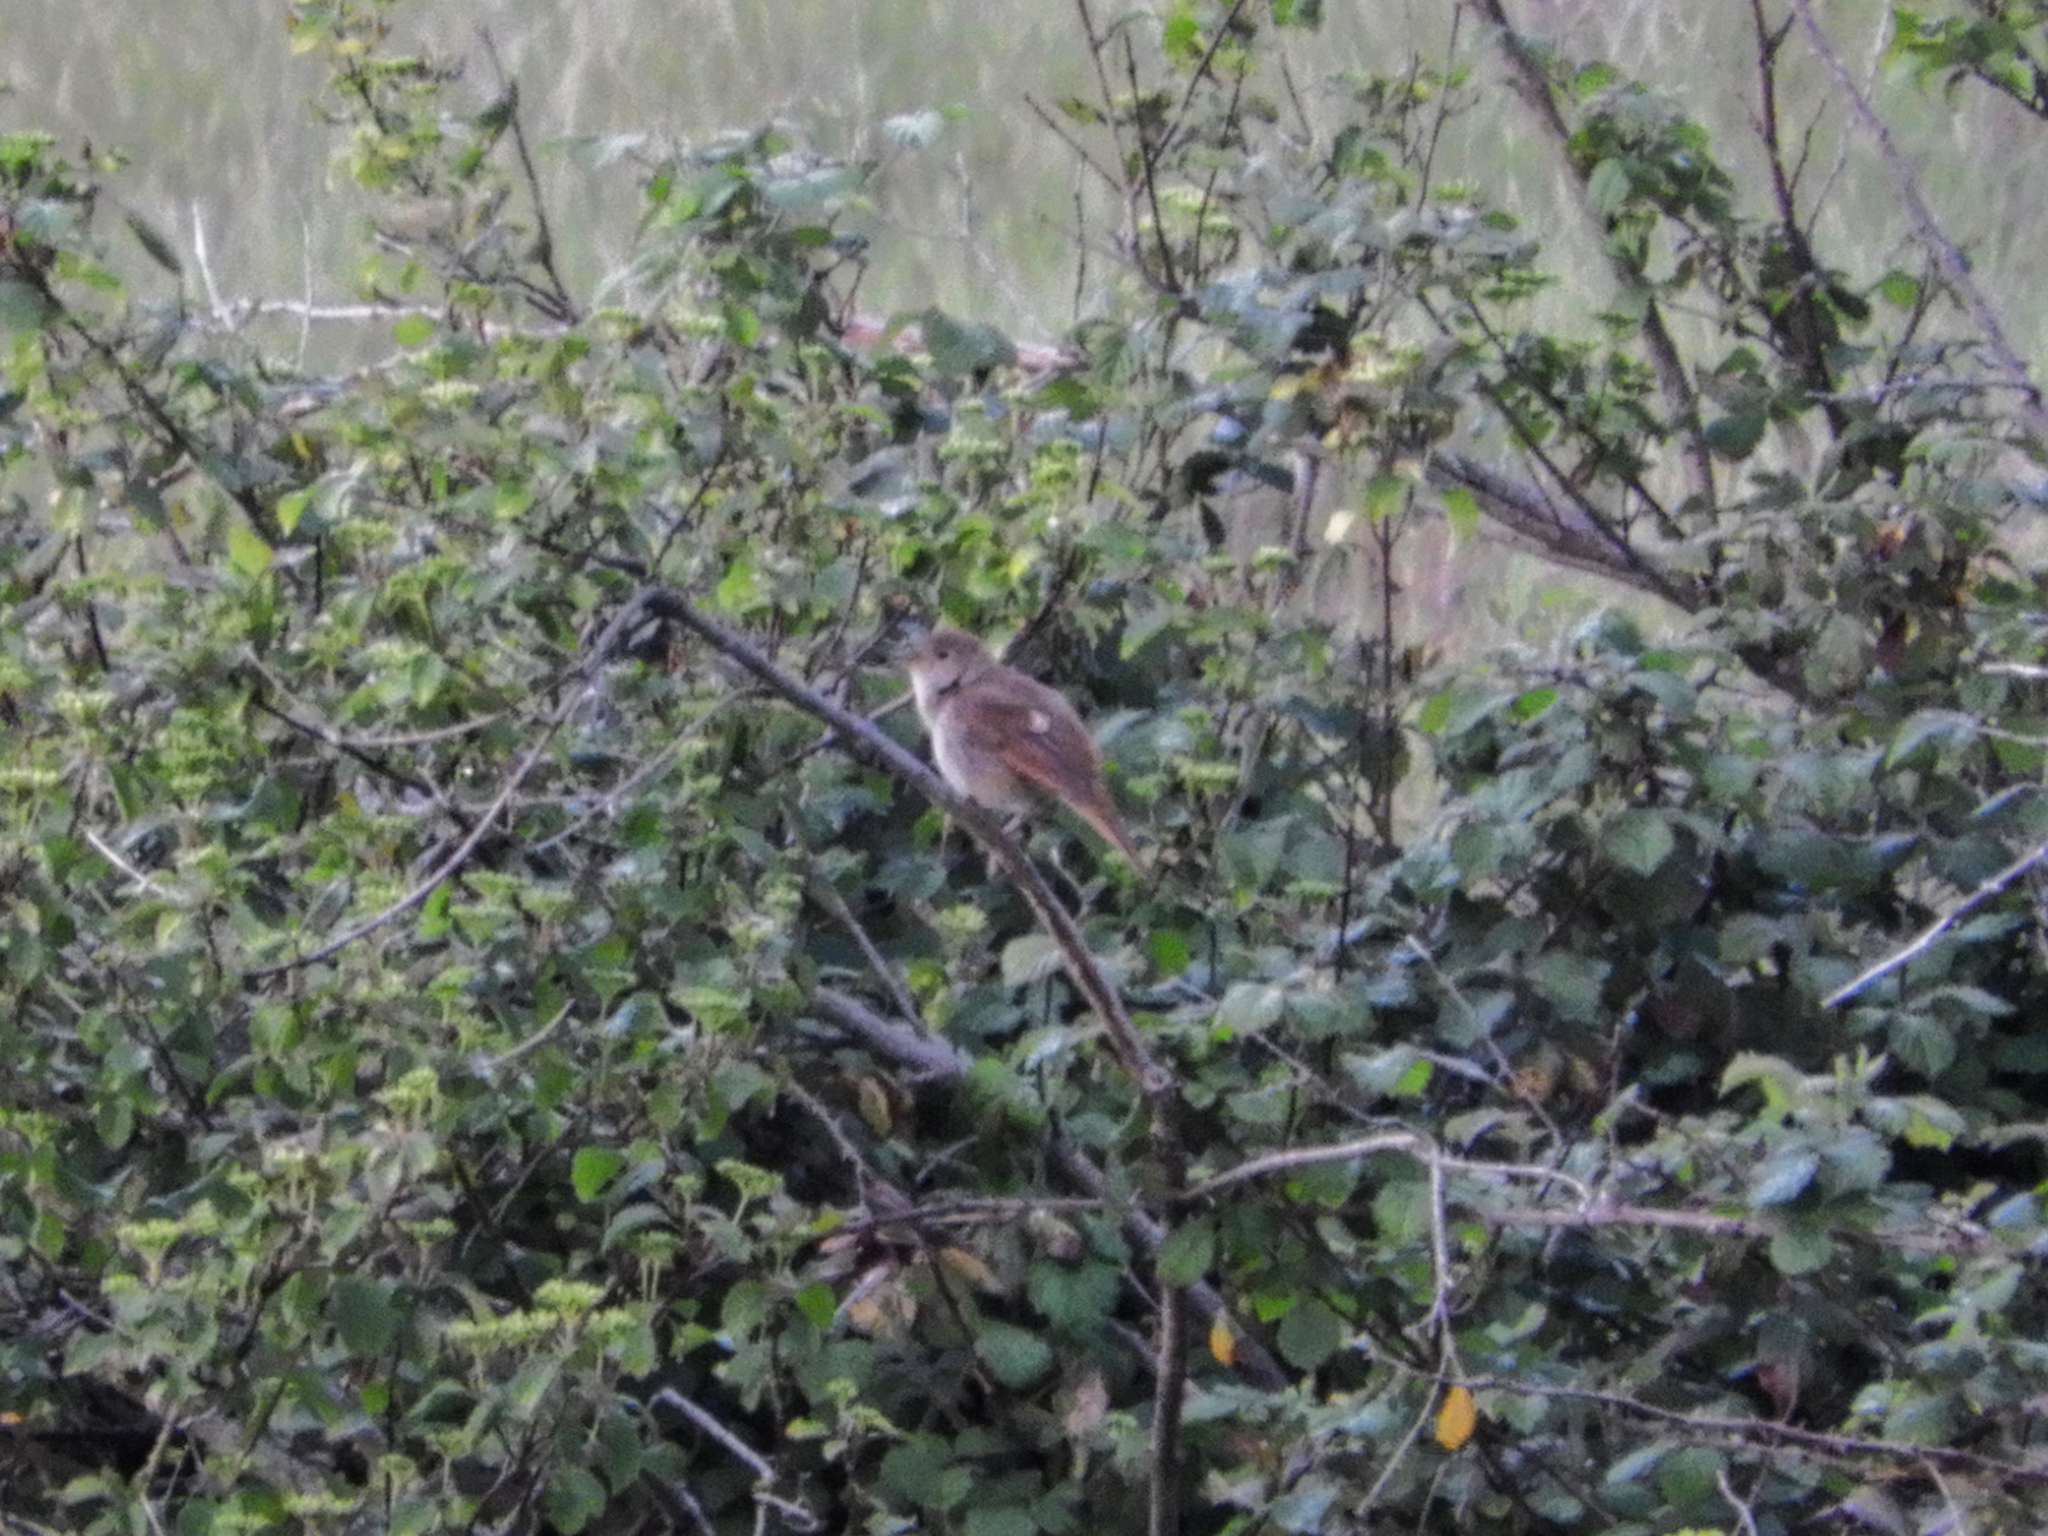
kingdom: Animalia
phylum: Chordata
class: Aves
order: Passeriformes
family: Muscicapidae
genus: Luscinia
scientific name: Luscinia megarhynchos
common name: Common nightingale
